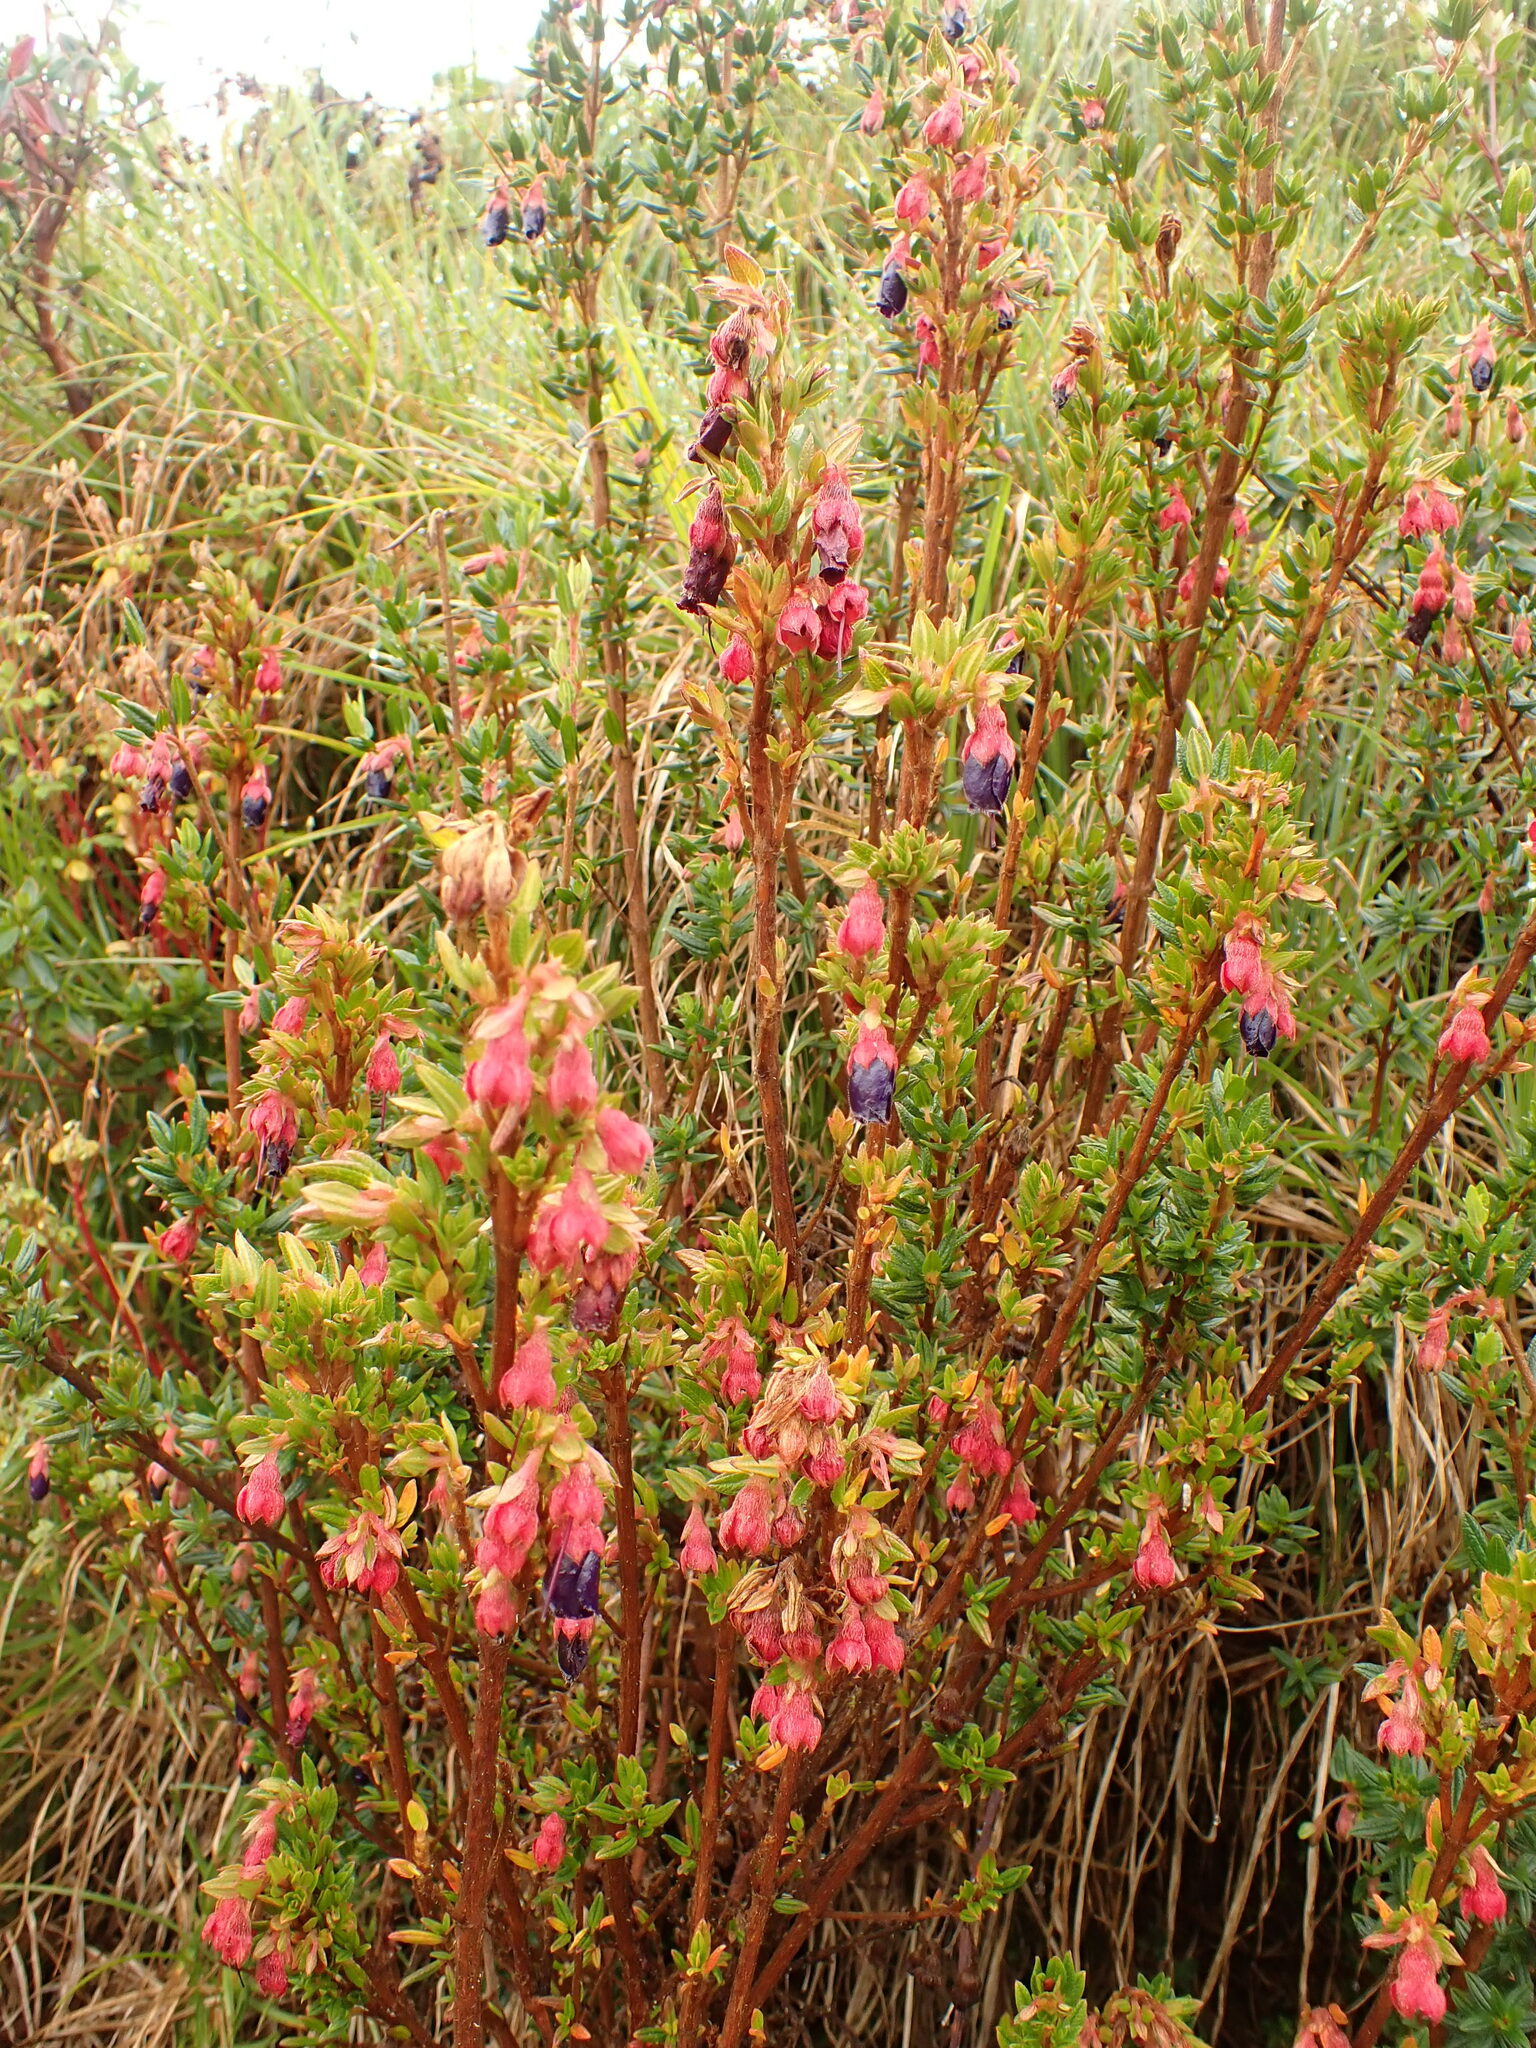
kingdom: Plantae
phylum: Tracheophyta
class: Magnoliopsida
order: Myrtales
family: Melastomataceae
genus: Brachyotum
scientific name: Brachyotum strigosum
